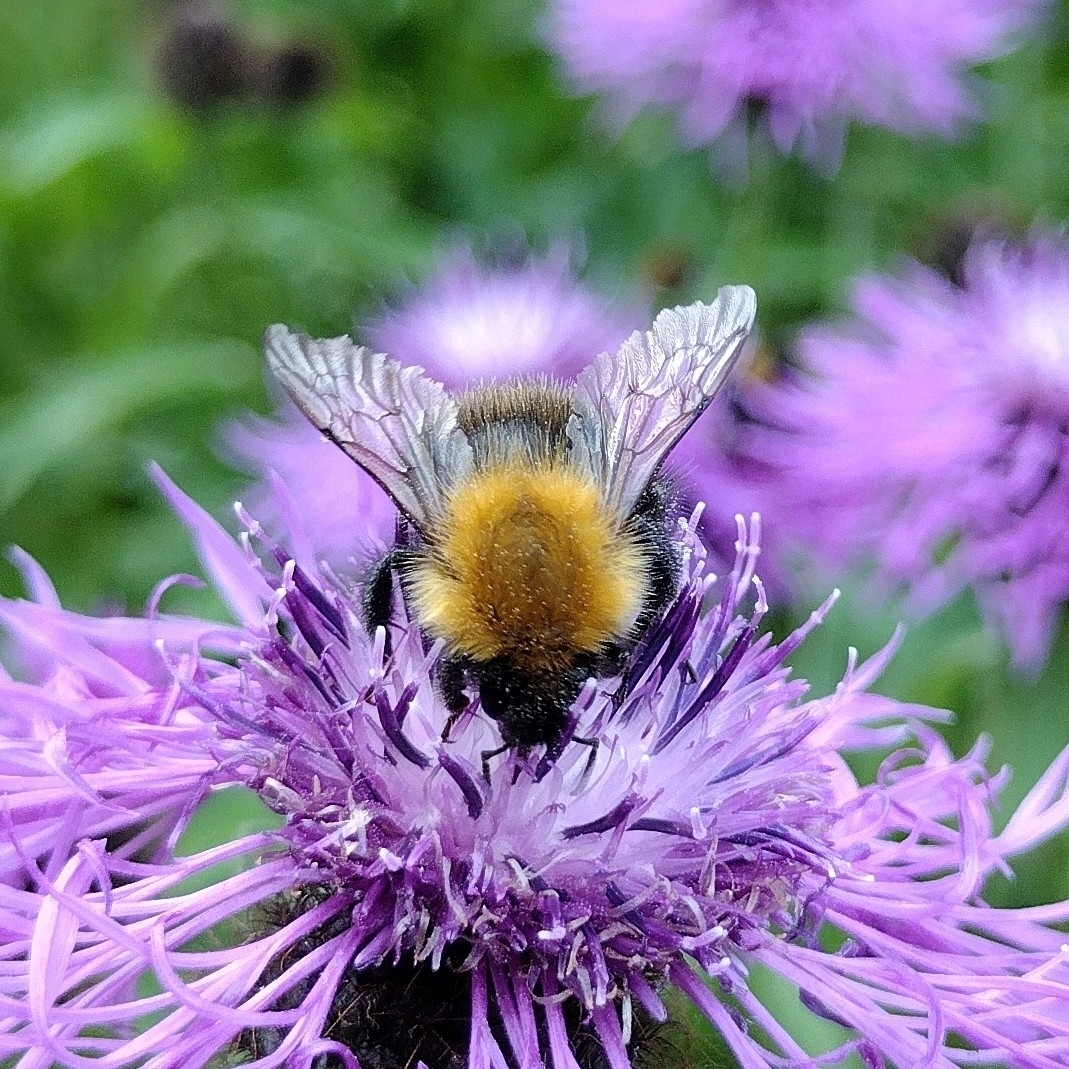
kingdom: Animalia
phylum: Arthropoda
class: Insecta
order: Hymenoptera
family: Apidae
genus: Bombus
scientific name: Bombus pascuorum
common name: Common carder bee
